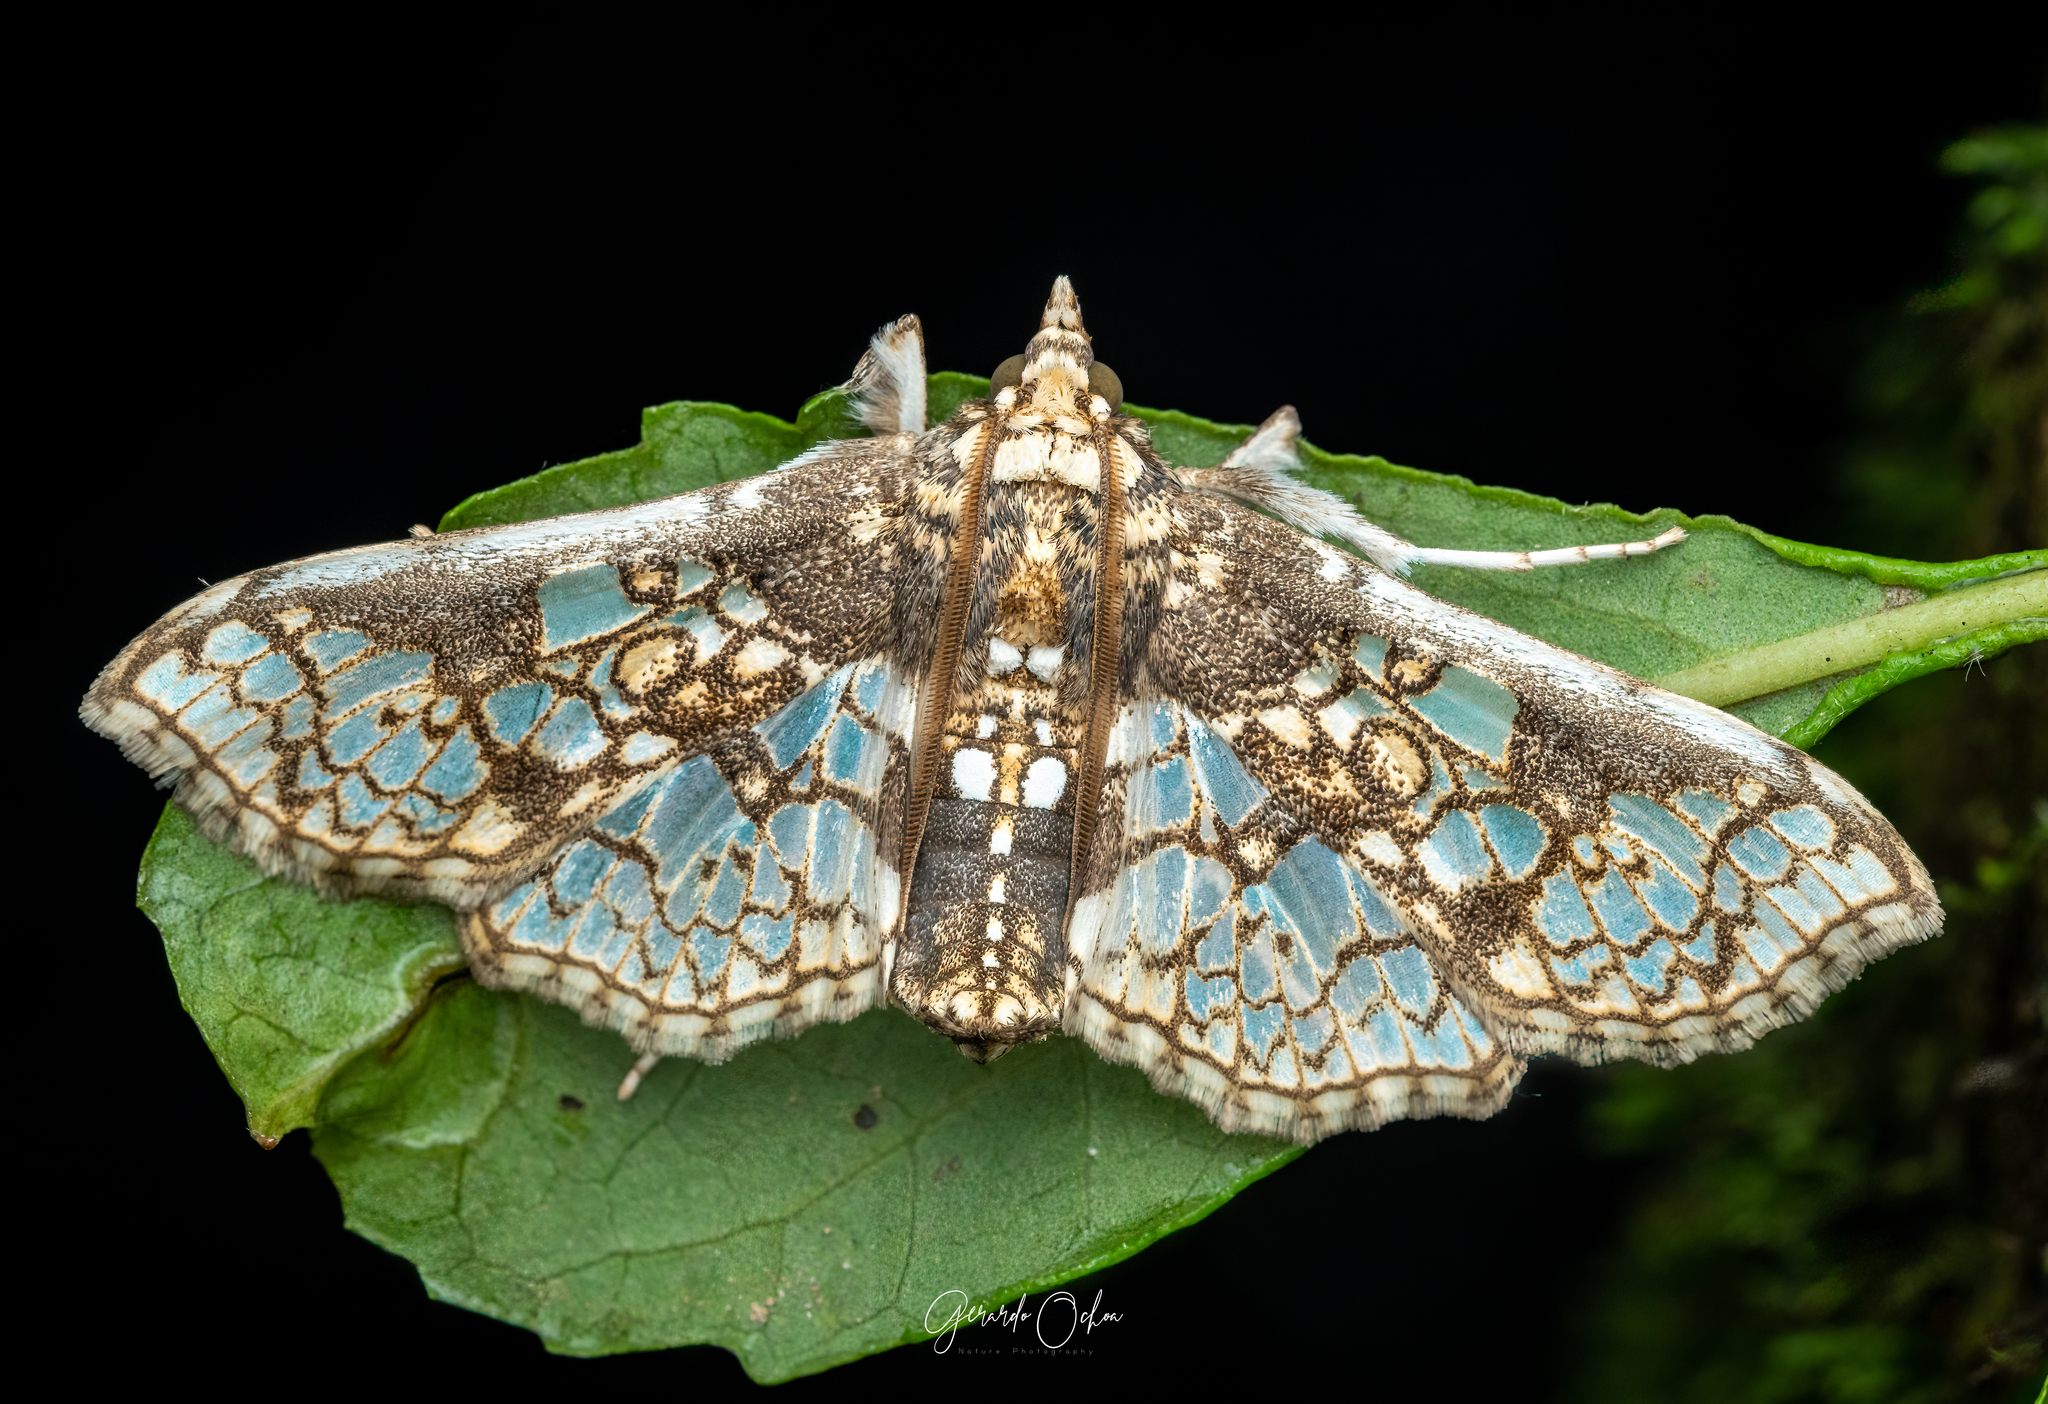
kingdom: Animalia
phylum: Arthropoda
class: Insecta
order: Lepidoptera
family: Crambidae
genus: Megastes
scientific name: Megastes praxiteles
